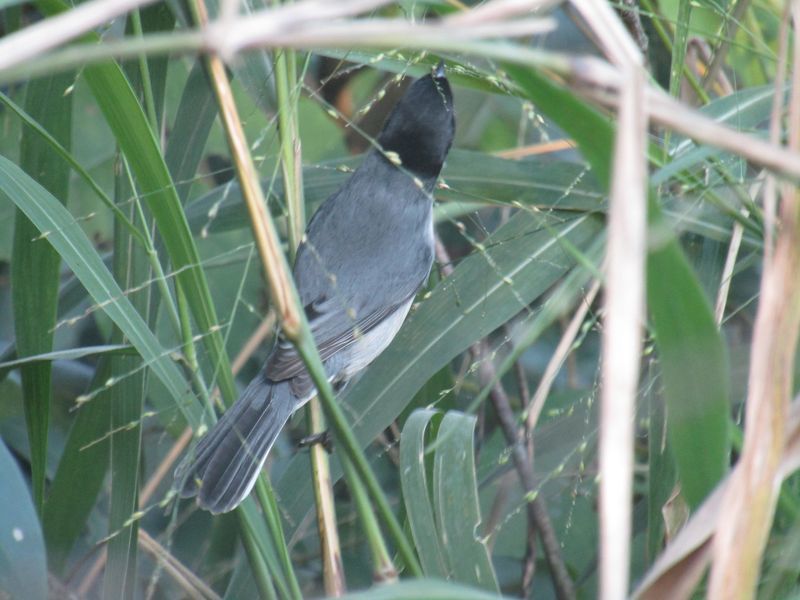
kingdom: Animalia
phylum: Chordata
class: Aves
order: Passeriformes
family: Thraupidae
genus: Microspingus
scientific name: Microspingus melanoleucus
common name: Black-capped warbling-finch
